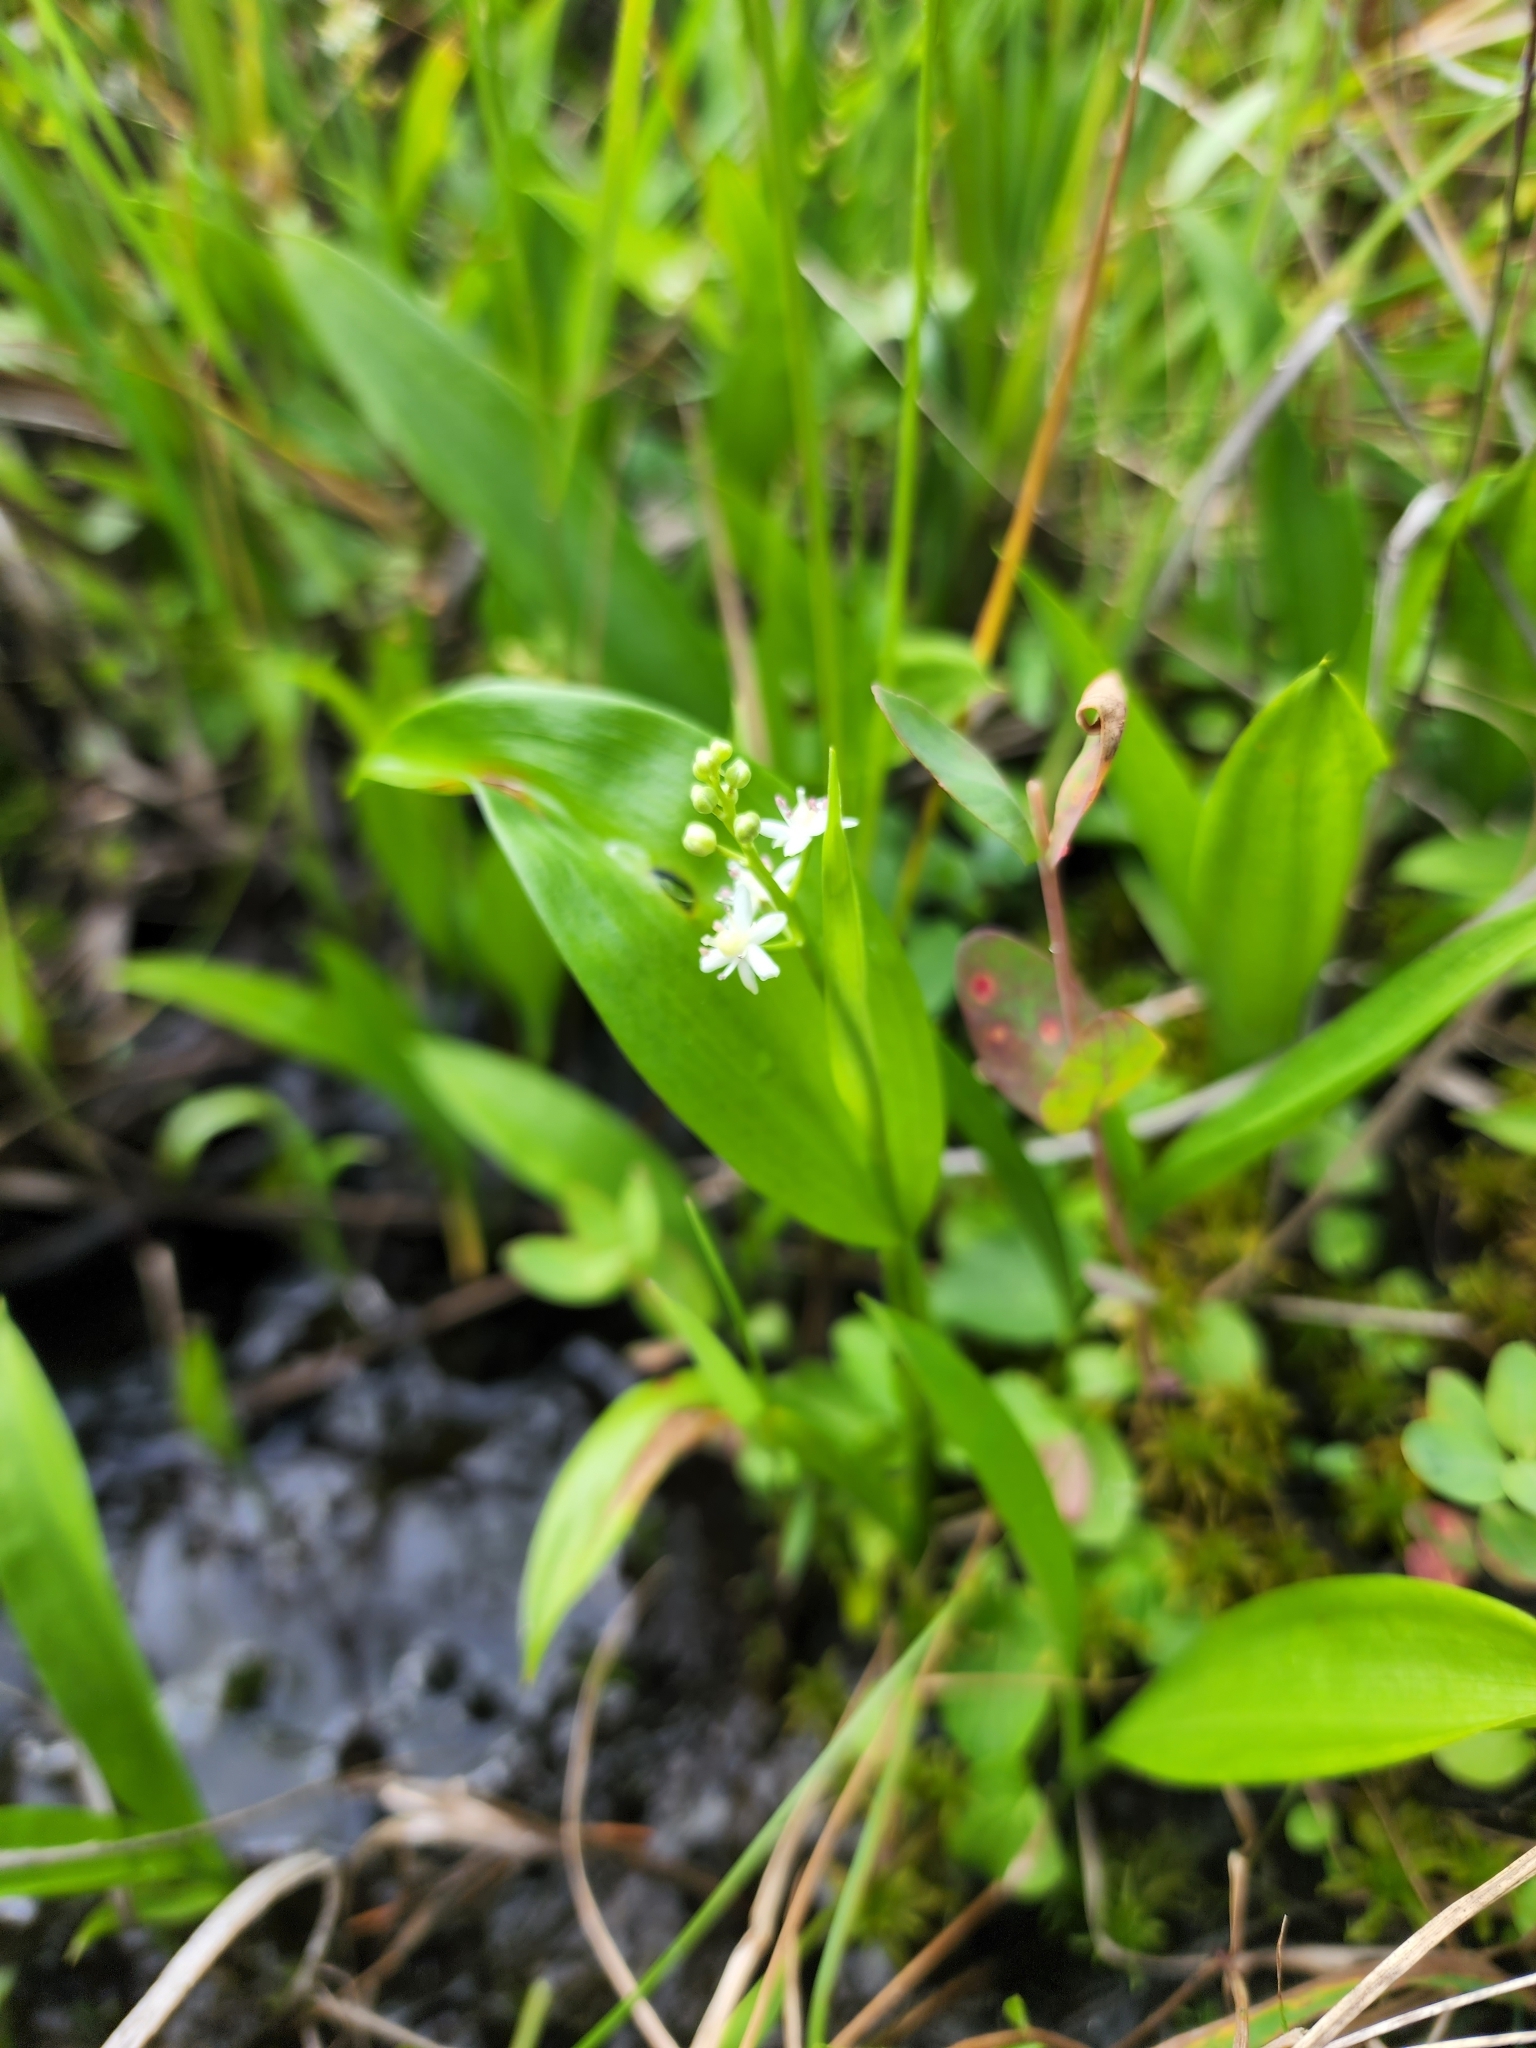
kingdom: Plantae
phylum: Tracheophyta
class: Liliopsida
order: Asparagales
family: Asparagaceae
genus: Maianthemum
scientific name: Maianthemum trifolium
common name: Swamp false solomon's seal
